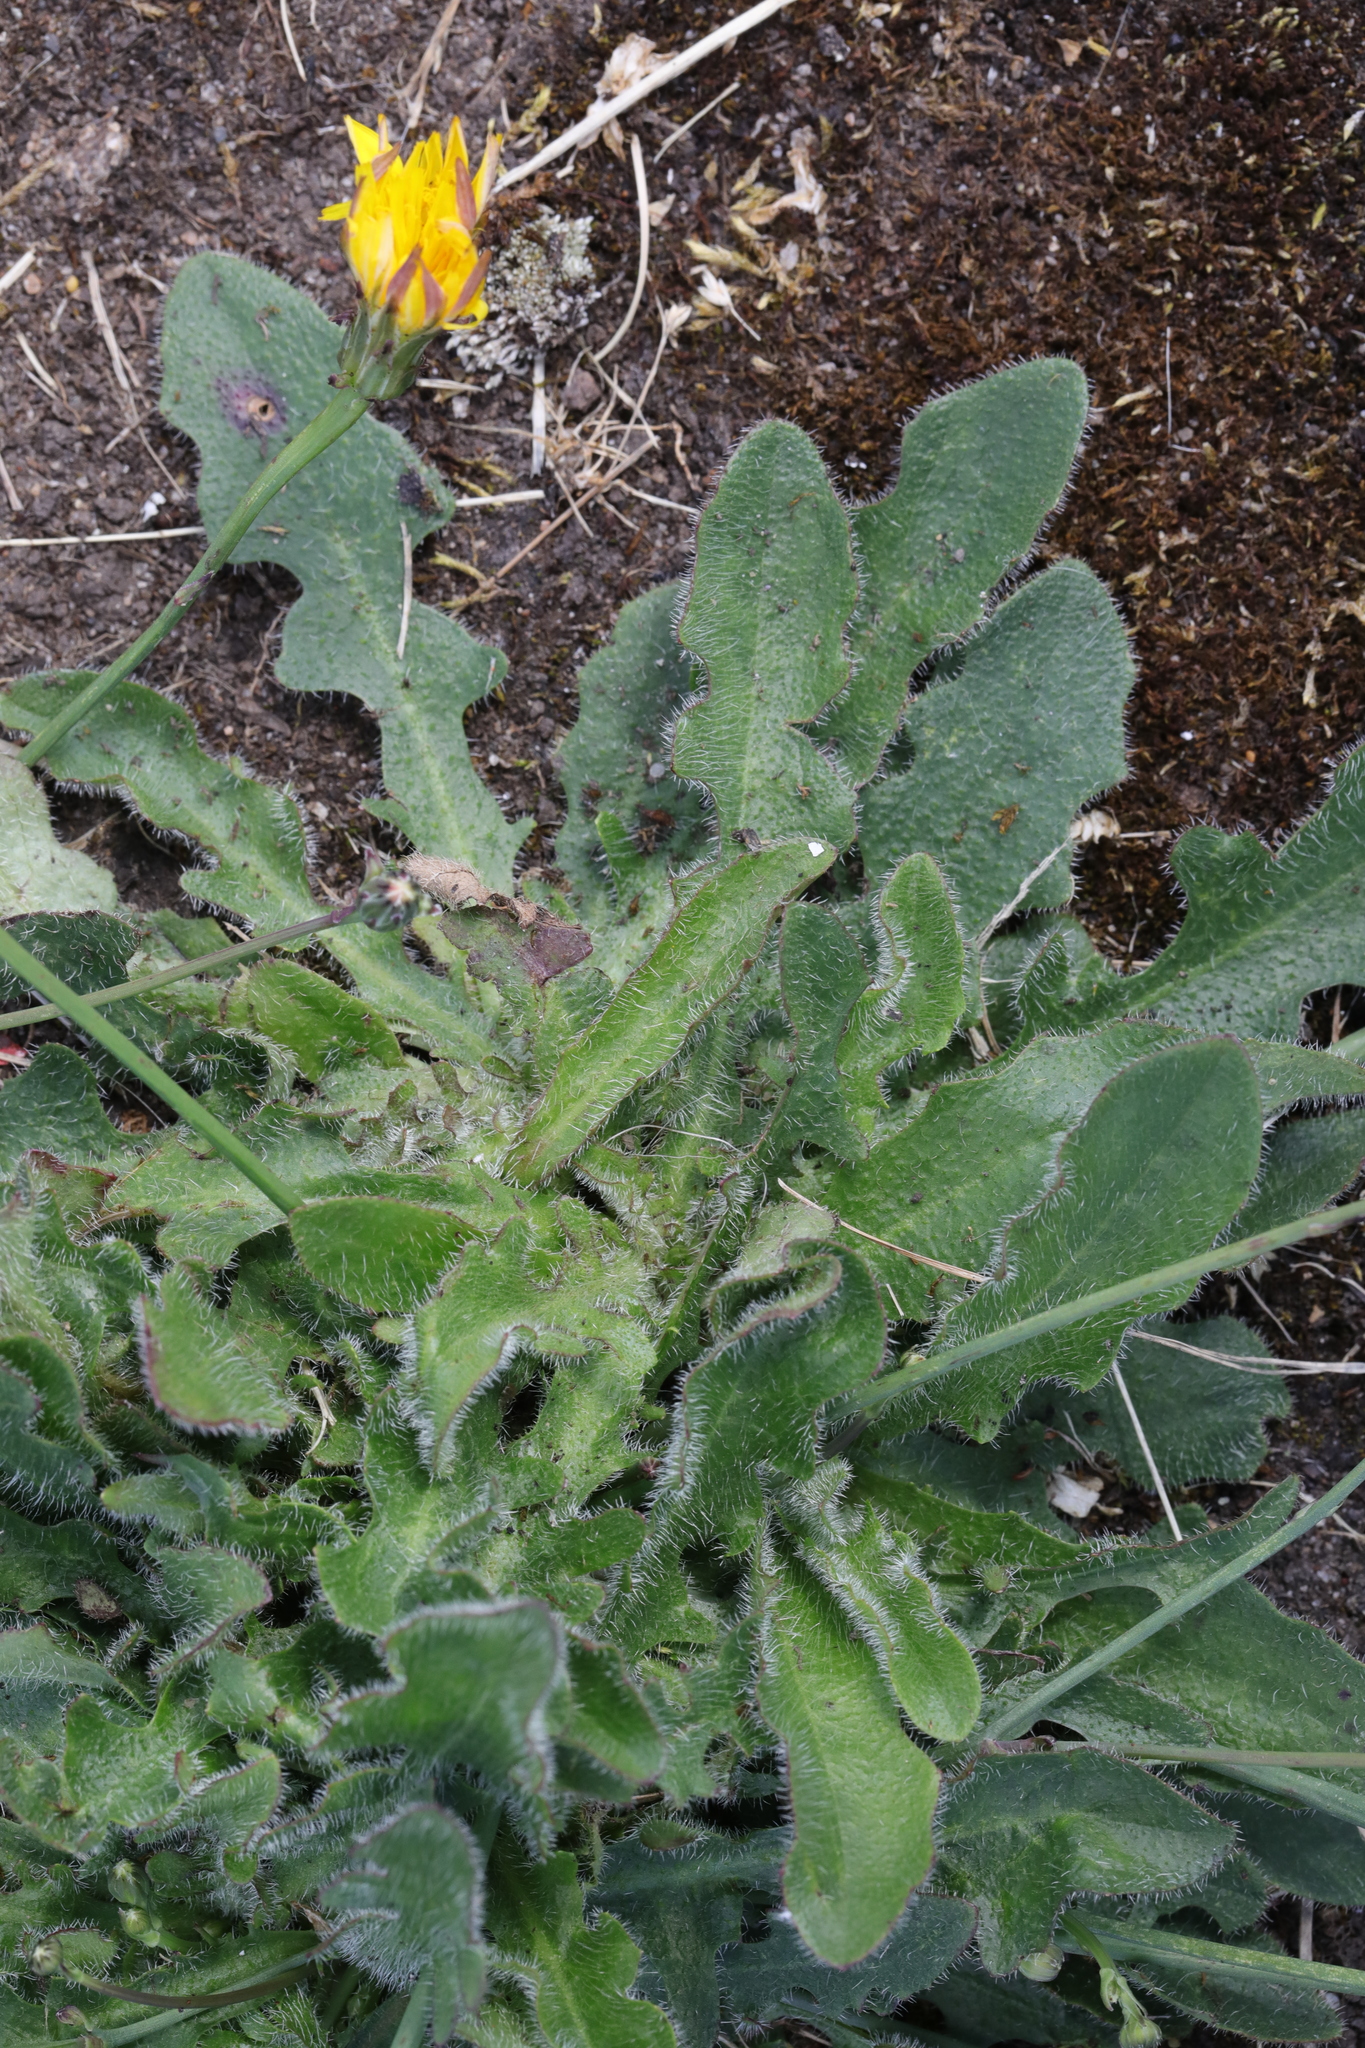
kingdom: Plantae
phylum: Tracheophyta
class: Magnoliopsida
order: Asterales
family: Asteraceae
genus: Hypochaeris
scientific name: Hypochaeris radicata
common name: Flatweed
